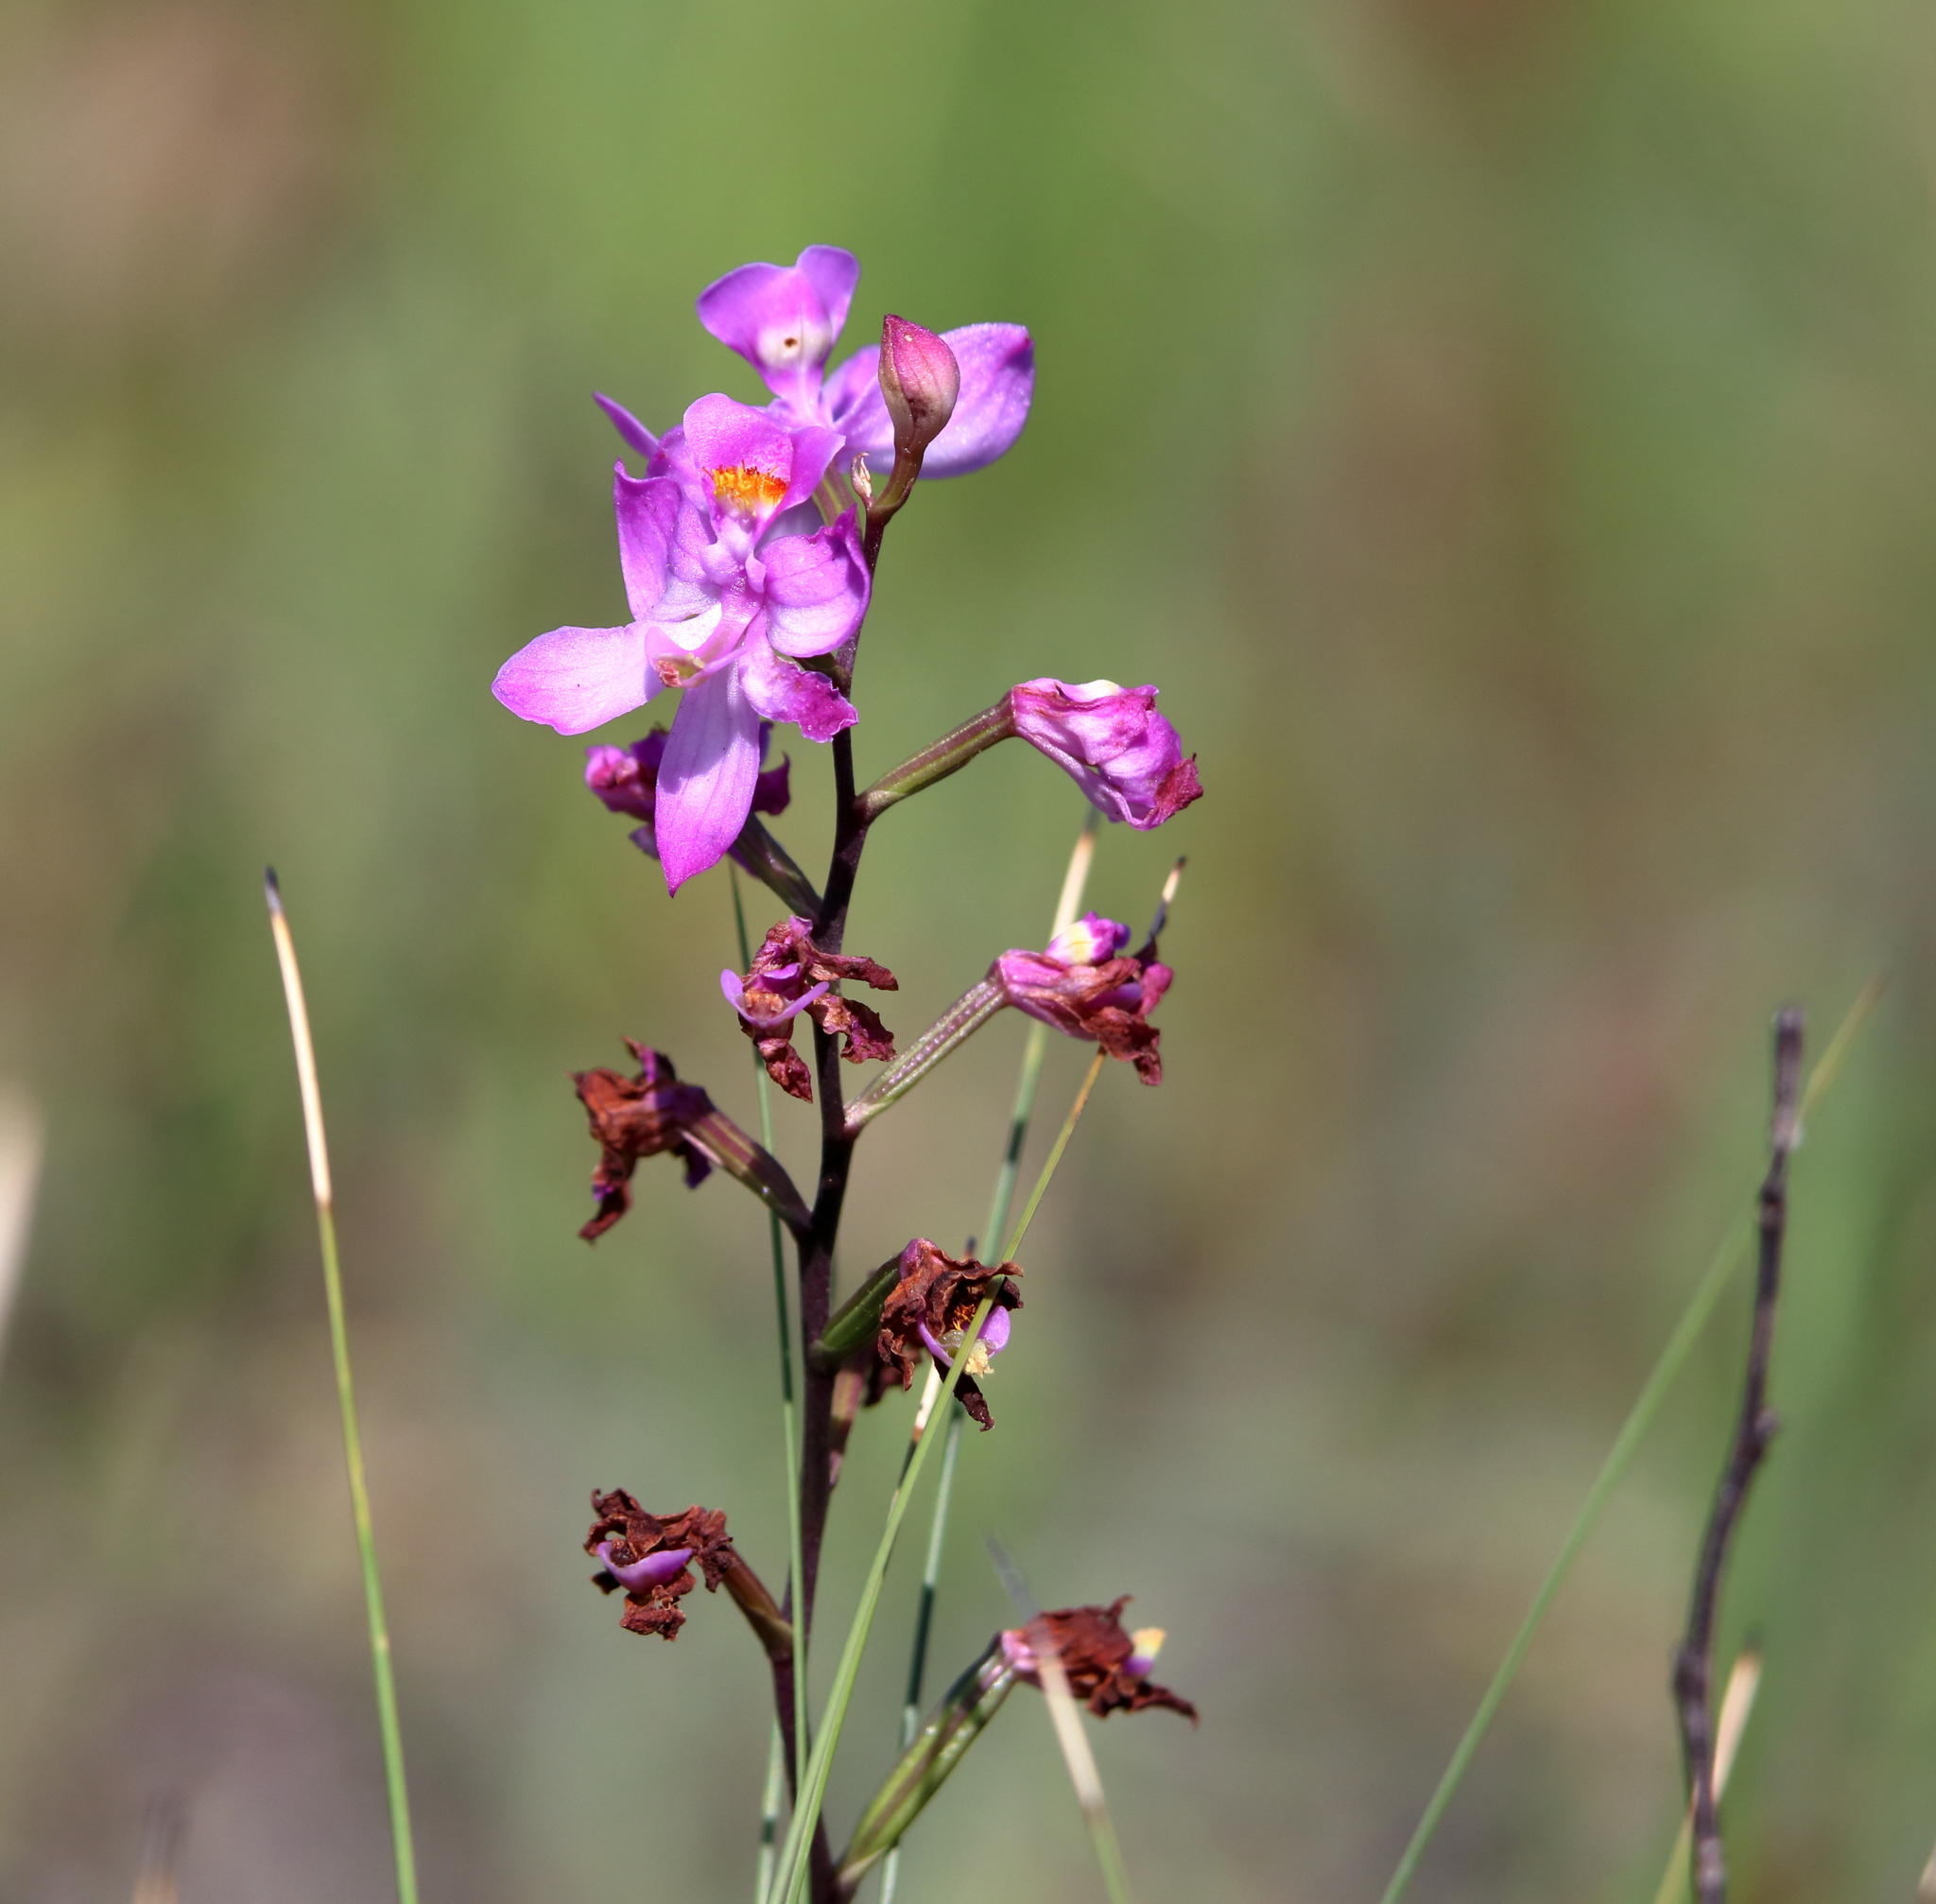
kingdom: Plantae
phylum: Tracheophyta
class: Liliopsida
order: Asparagales
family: Orchidaceae
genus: Calopogon
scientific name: Calopogon multiflorus
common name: Many-flowered grass-pink orchid
